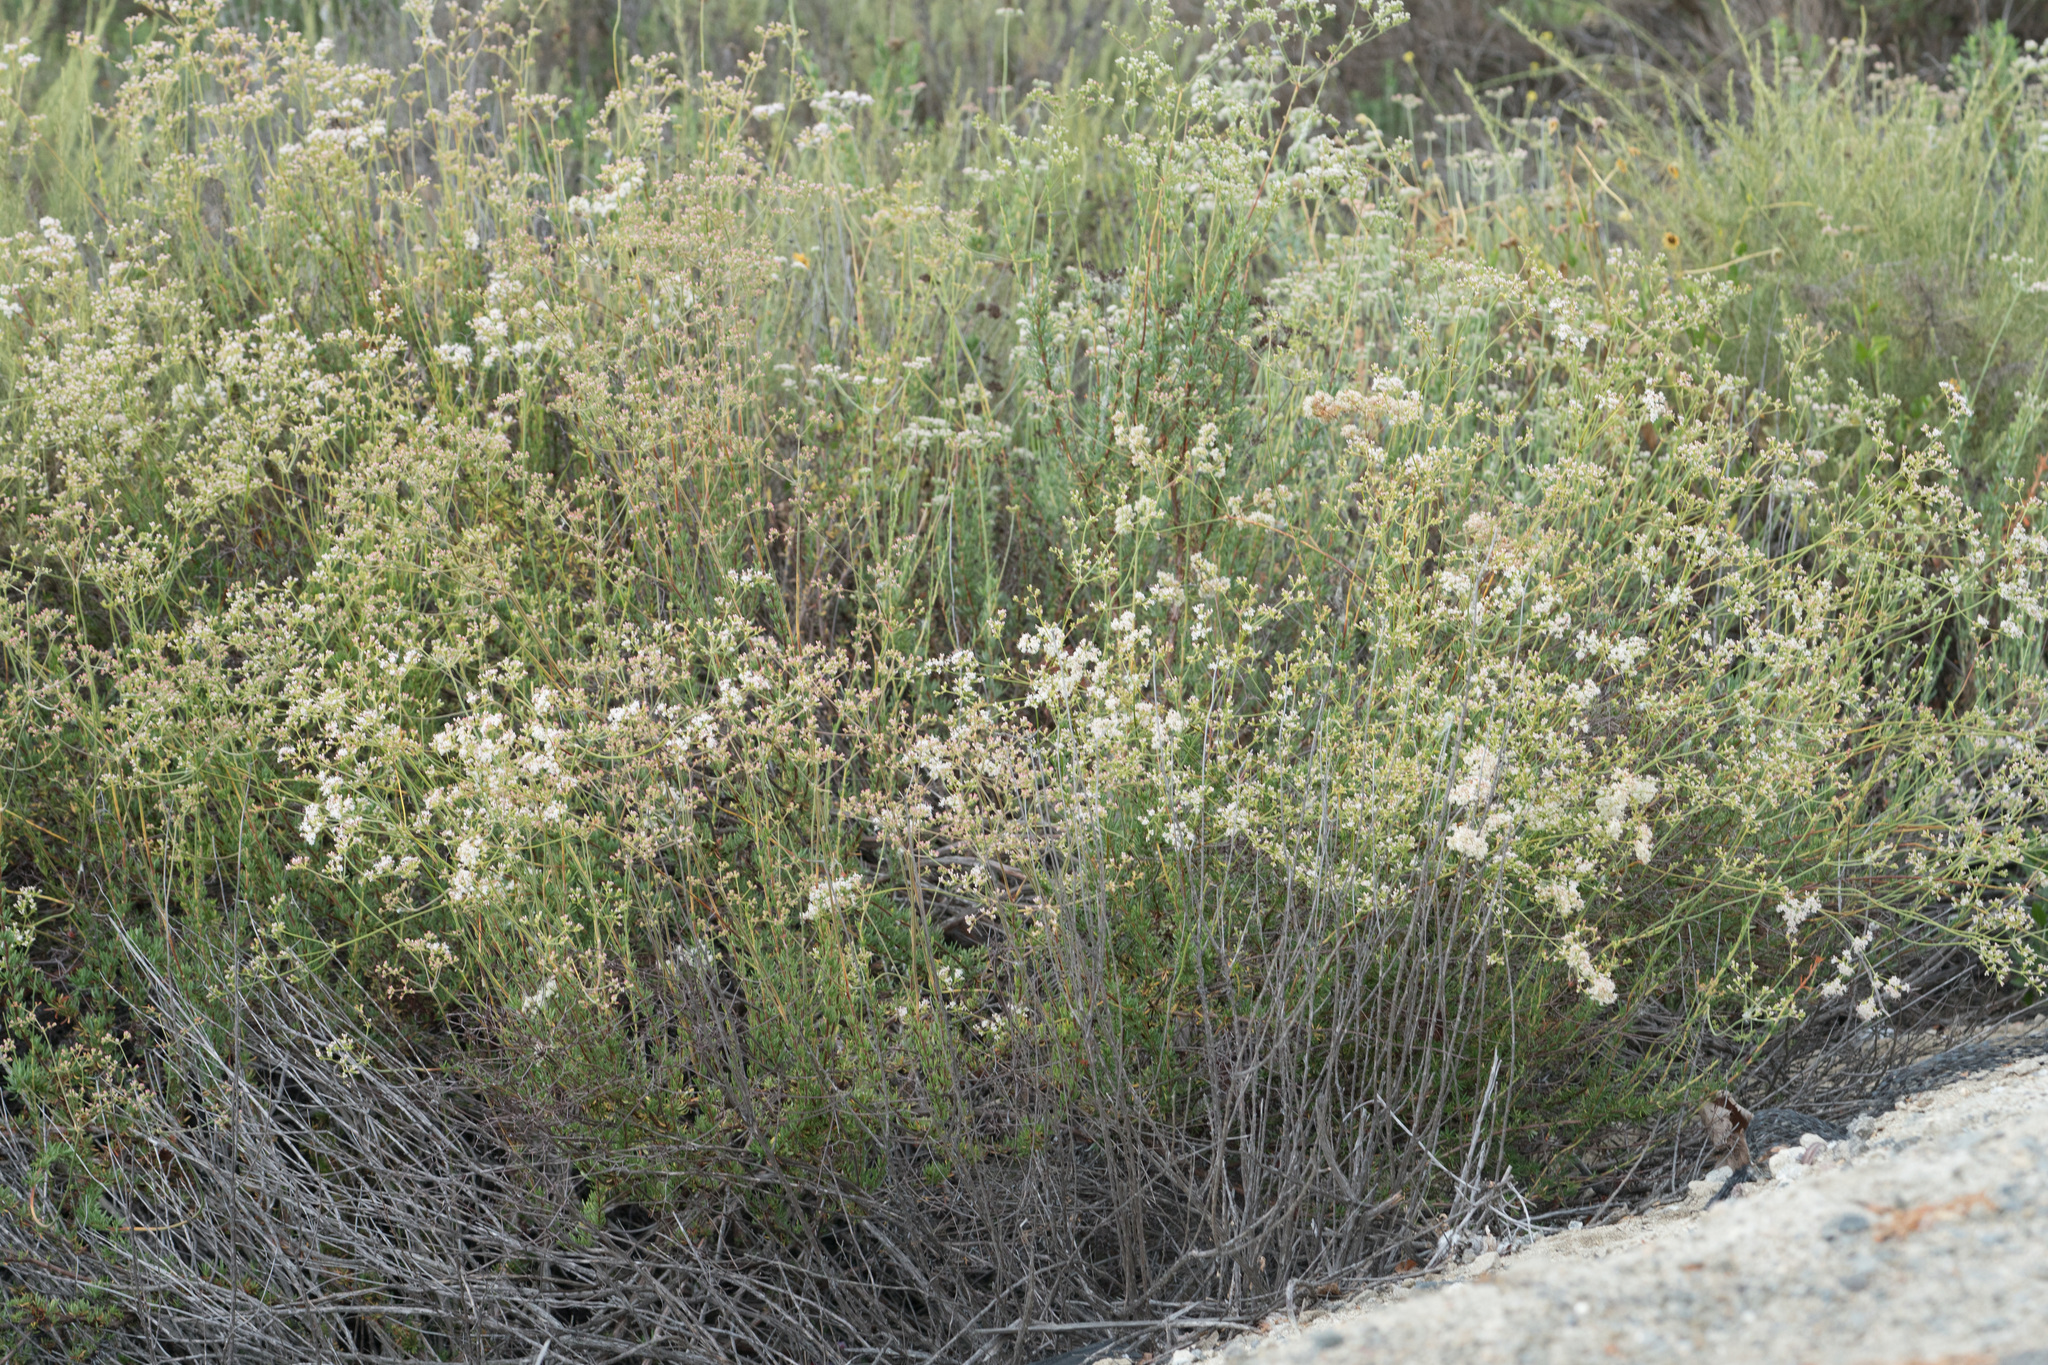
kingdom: Plantae
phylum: Tracheophyta
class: Magnoliopsida
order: Caryophyllales
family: Polygonaceae
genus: Eriogonum
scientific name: Eriogonum fasciculatum
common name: California wild buckwheat
